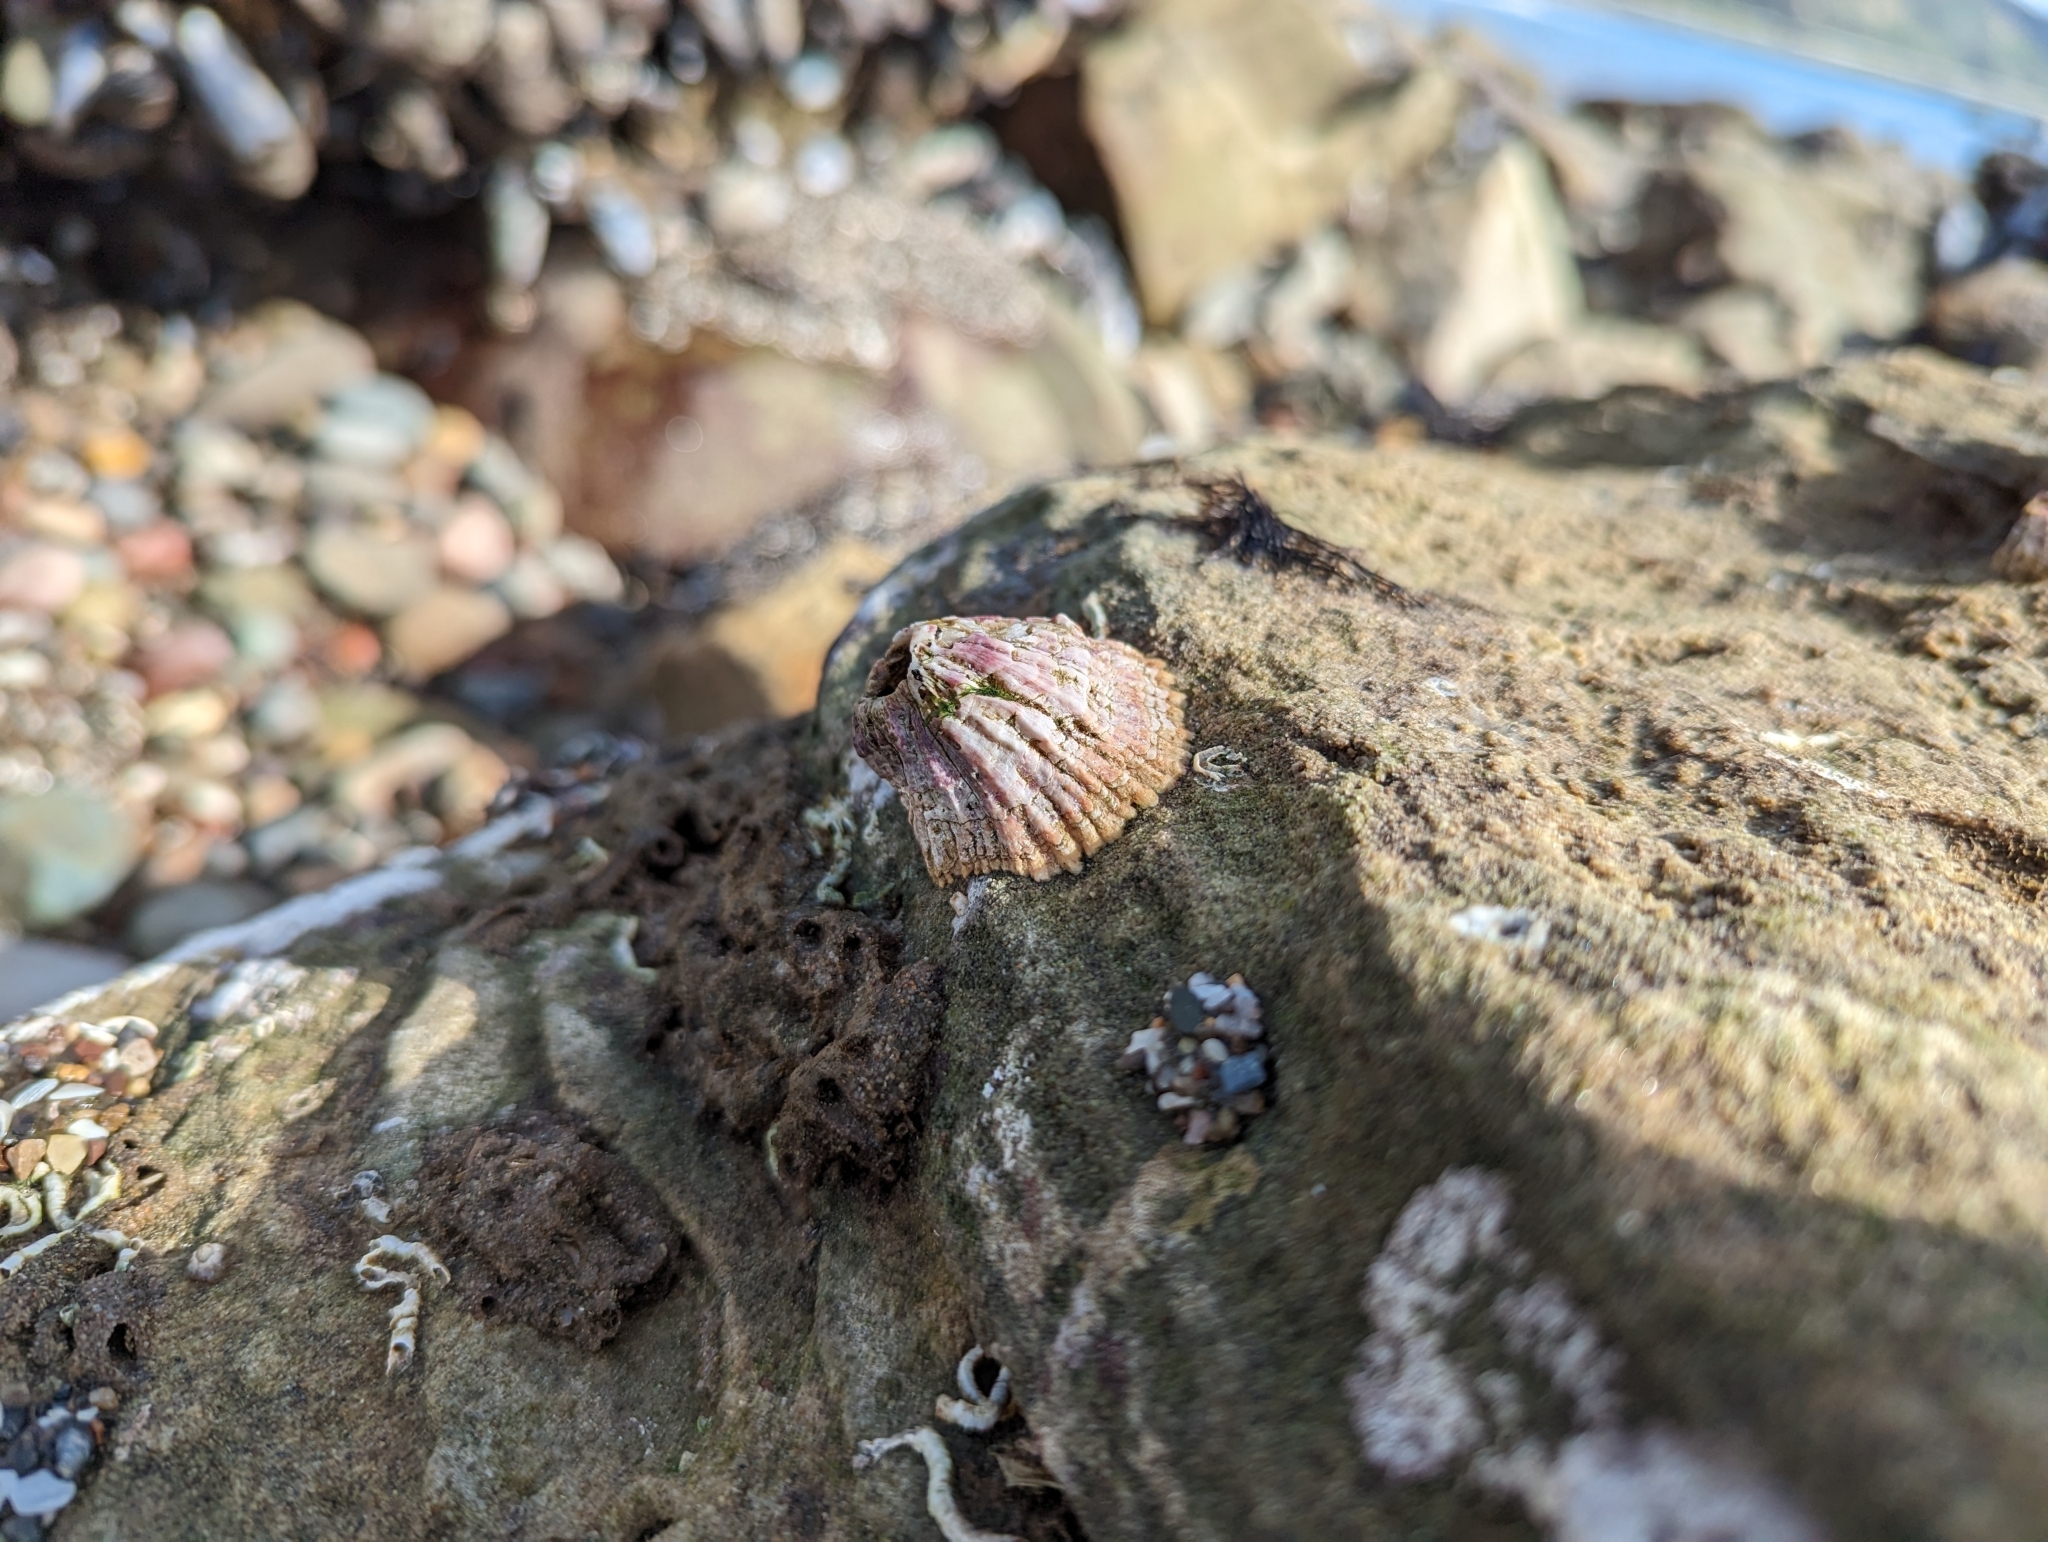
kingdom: Animalia
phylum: Arthropoda
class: Maxillopoda
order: Sessilia
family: Tetraclitidae
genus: Tetraclita
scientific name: Tetraclita rubescens
